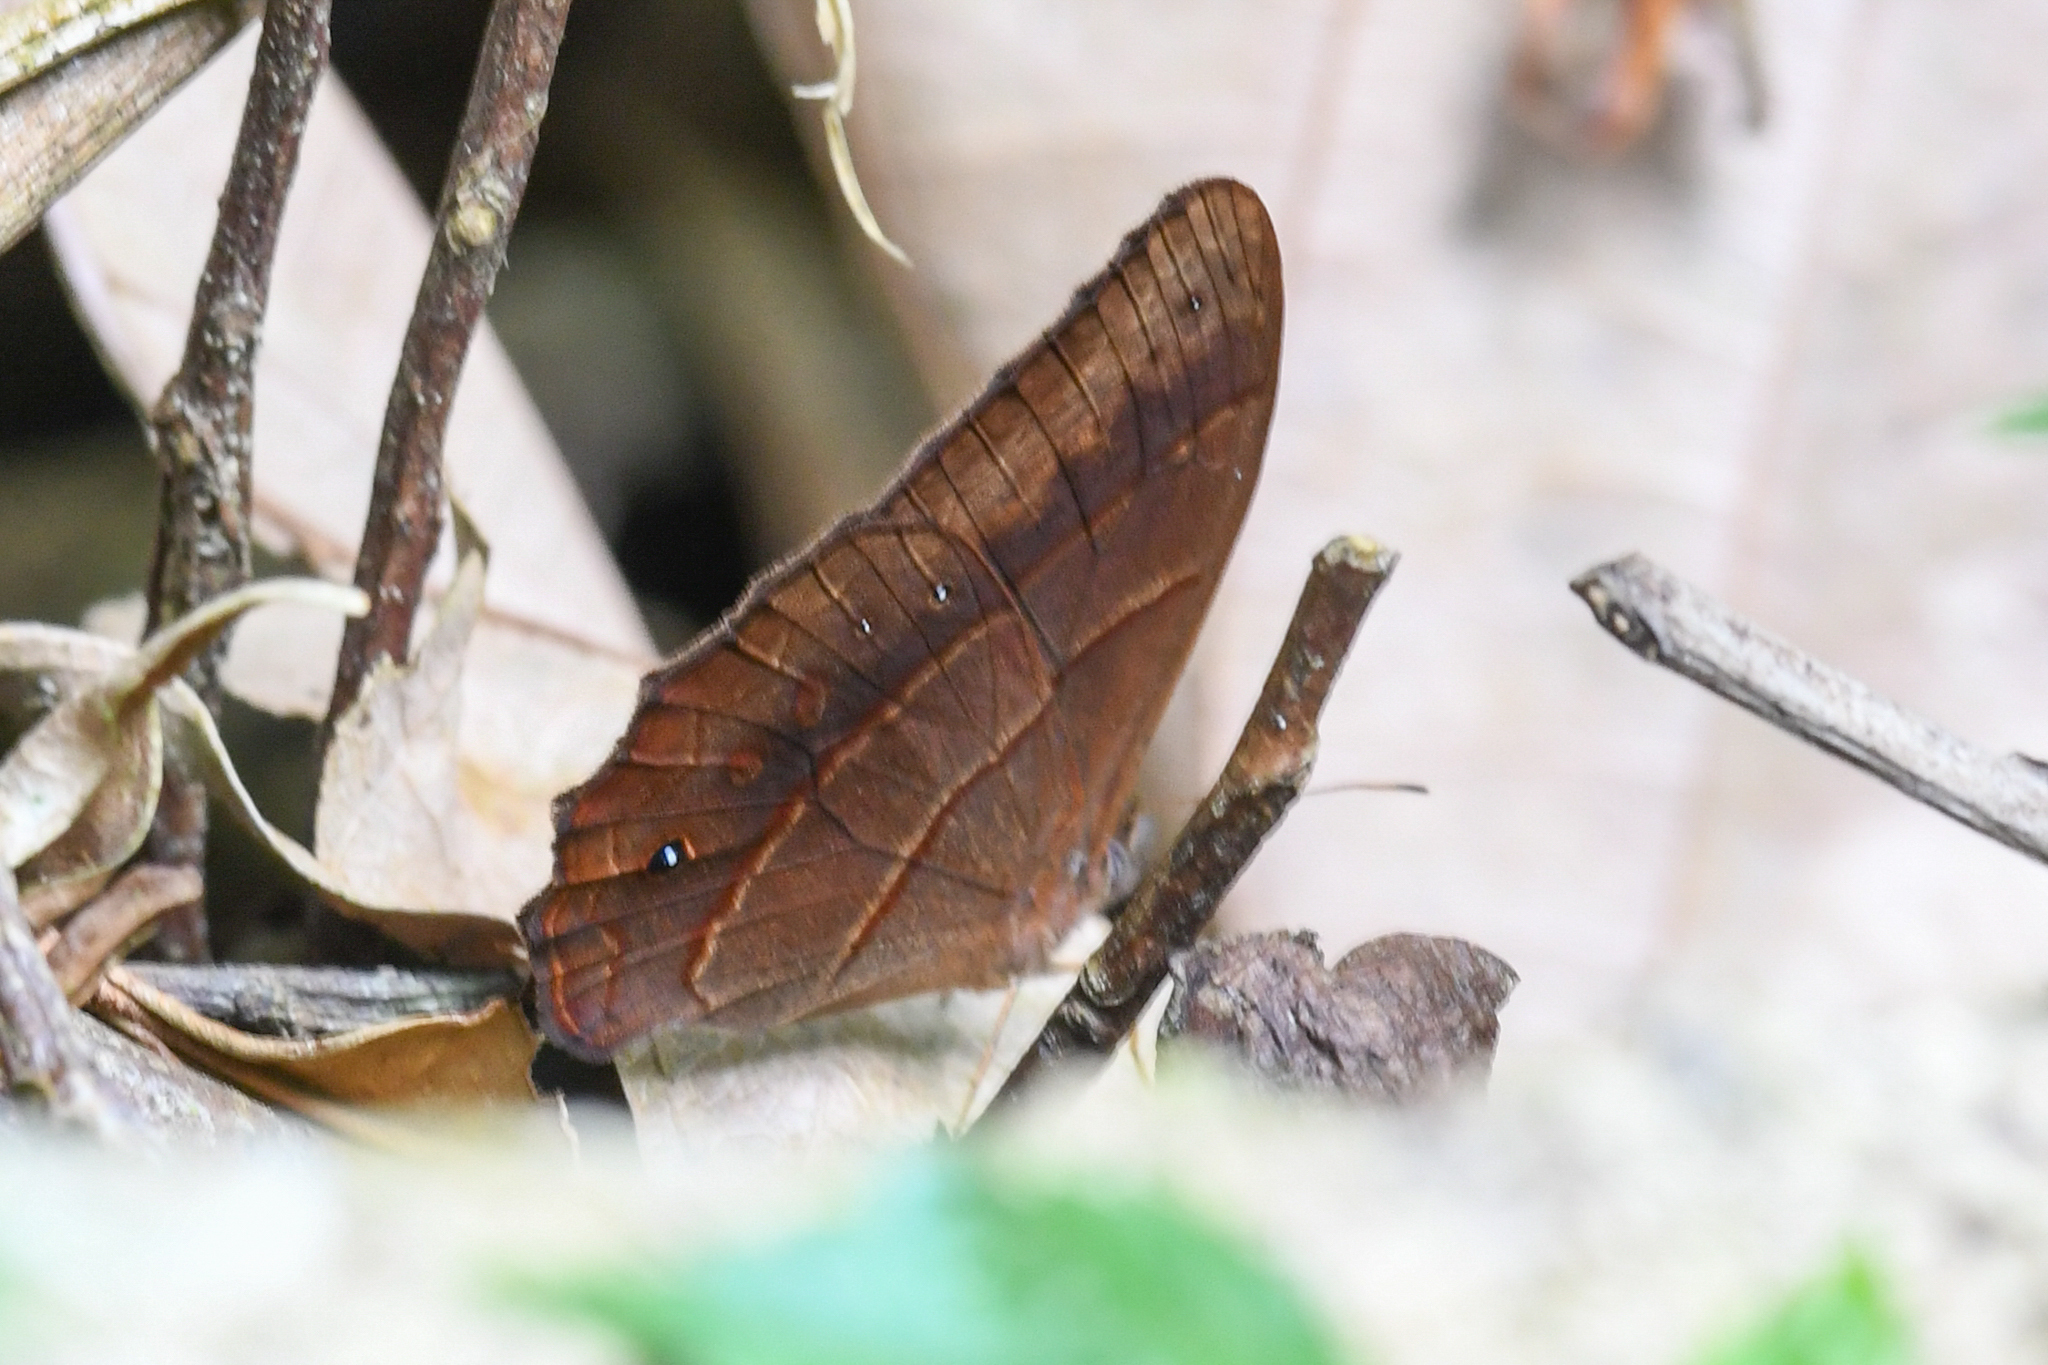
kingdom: Animalia
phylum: Arthropoda
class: Insecta
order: Lepidoptera
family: Nymphalidae
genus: Satyrotaygetis
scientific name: Satyrotaygetis satyrina
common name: Wide-bordered satyr
